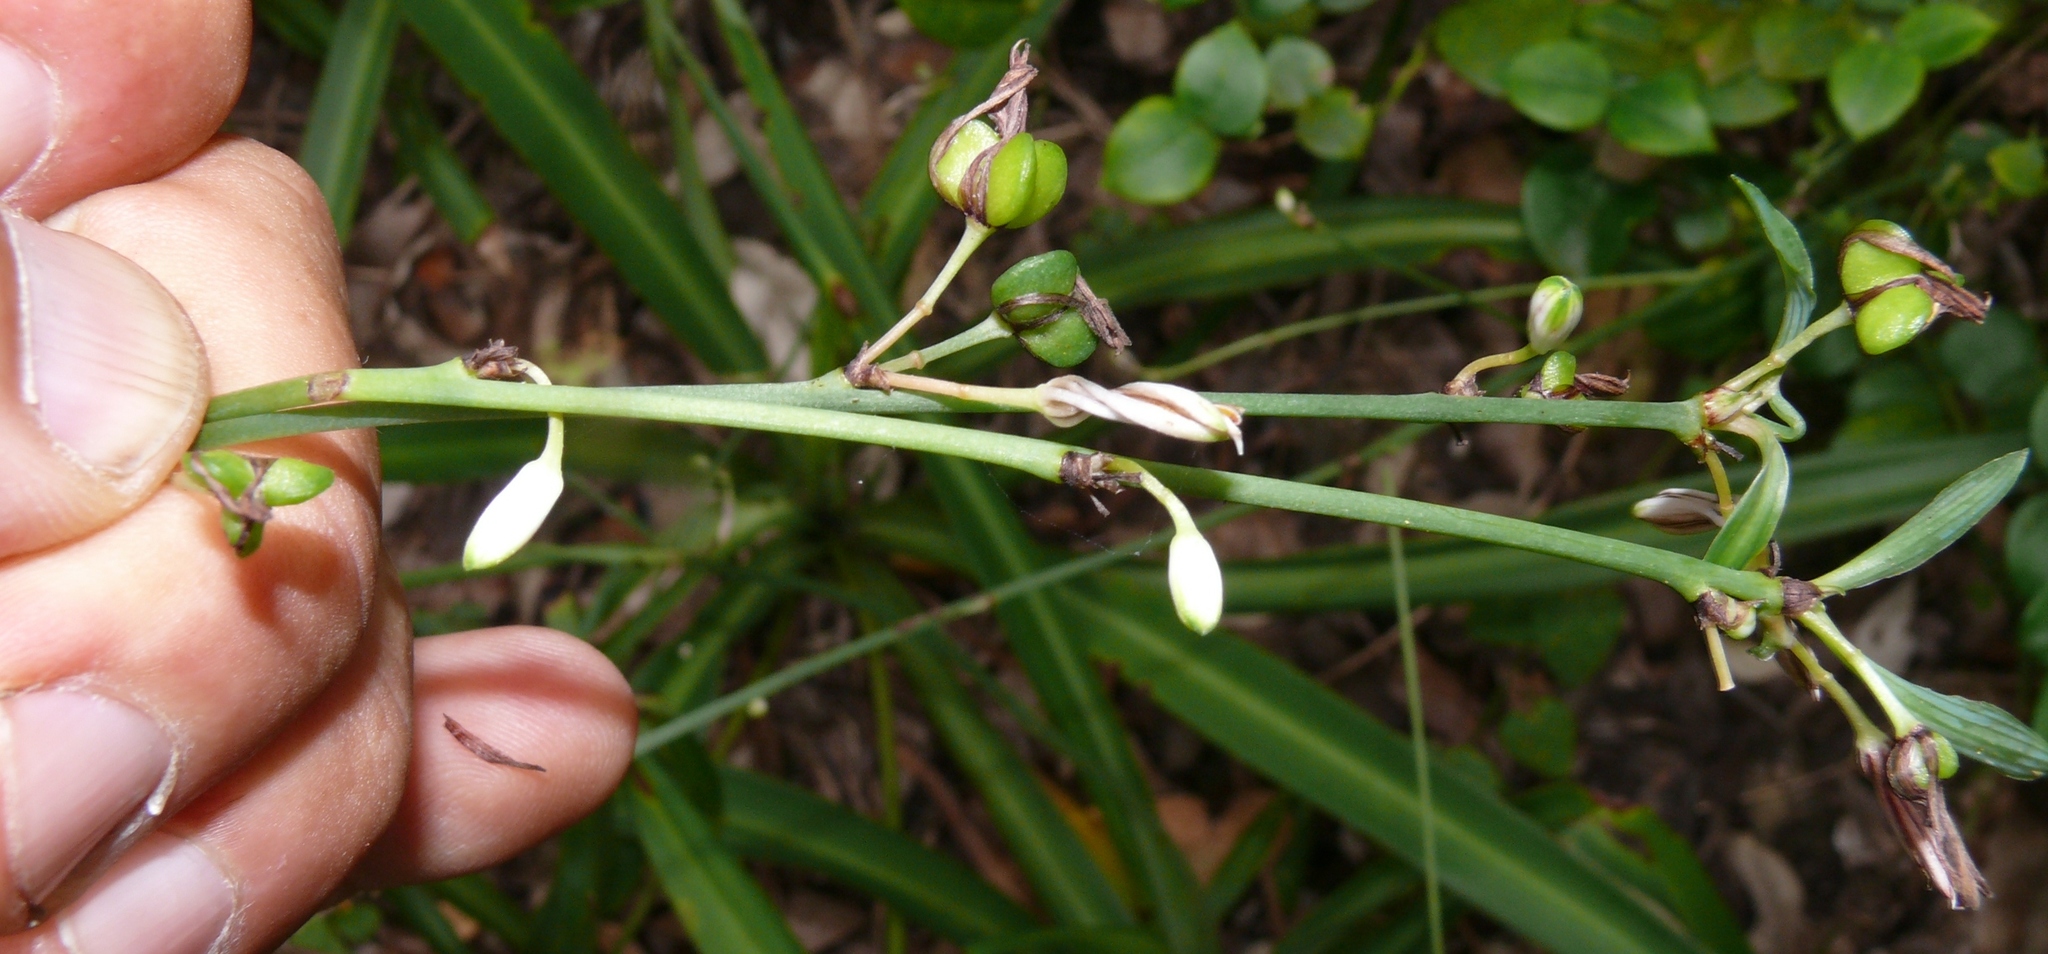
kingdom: Plantae
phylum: Tracheophyta
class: Liliopsida
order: Asparagales
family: Asparagaceae
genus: Chlorophytum
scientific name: Chlorophytum comosum
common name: Spider plant
